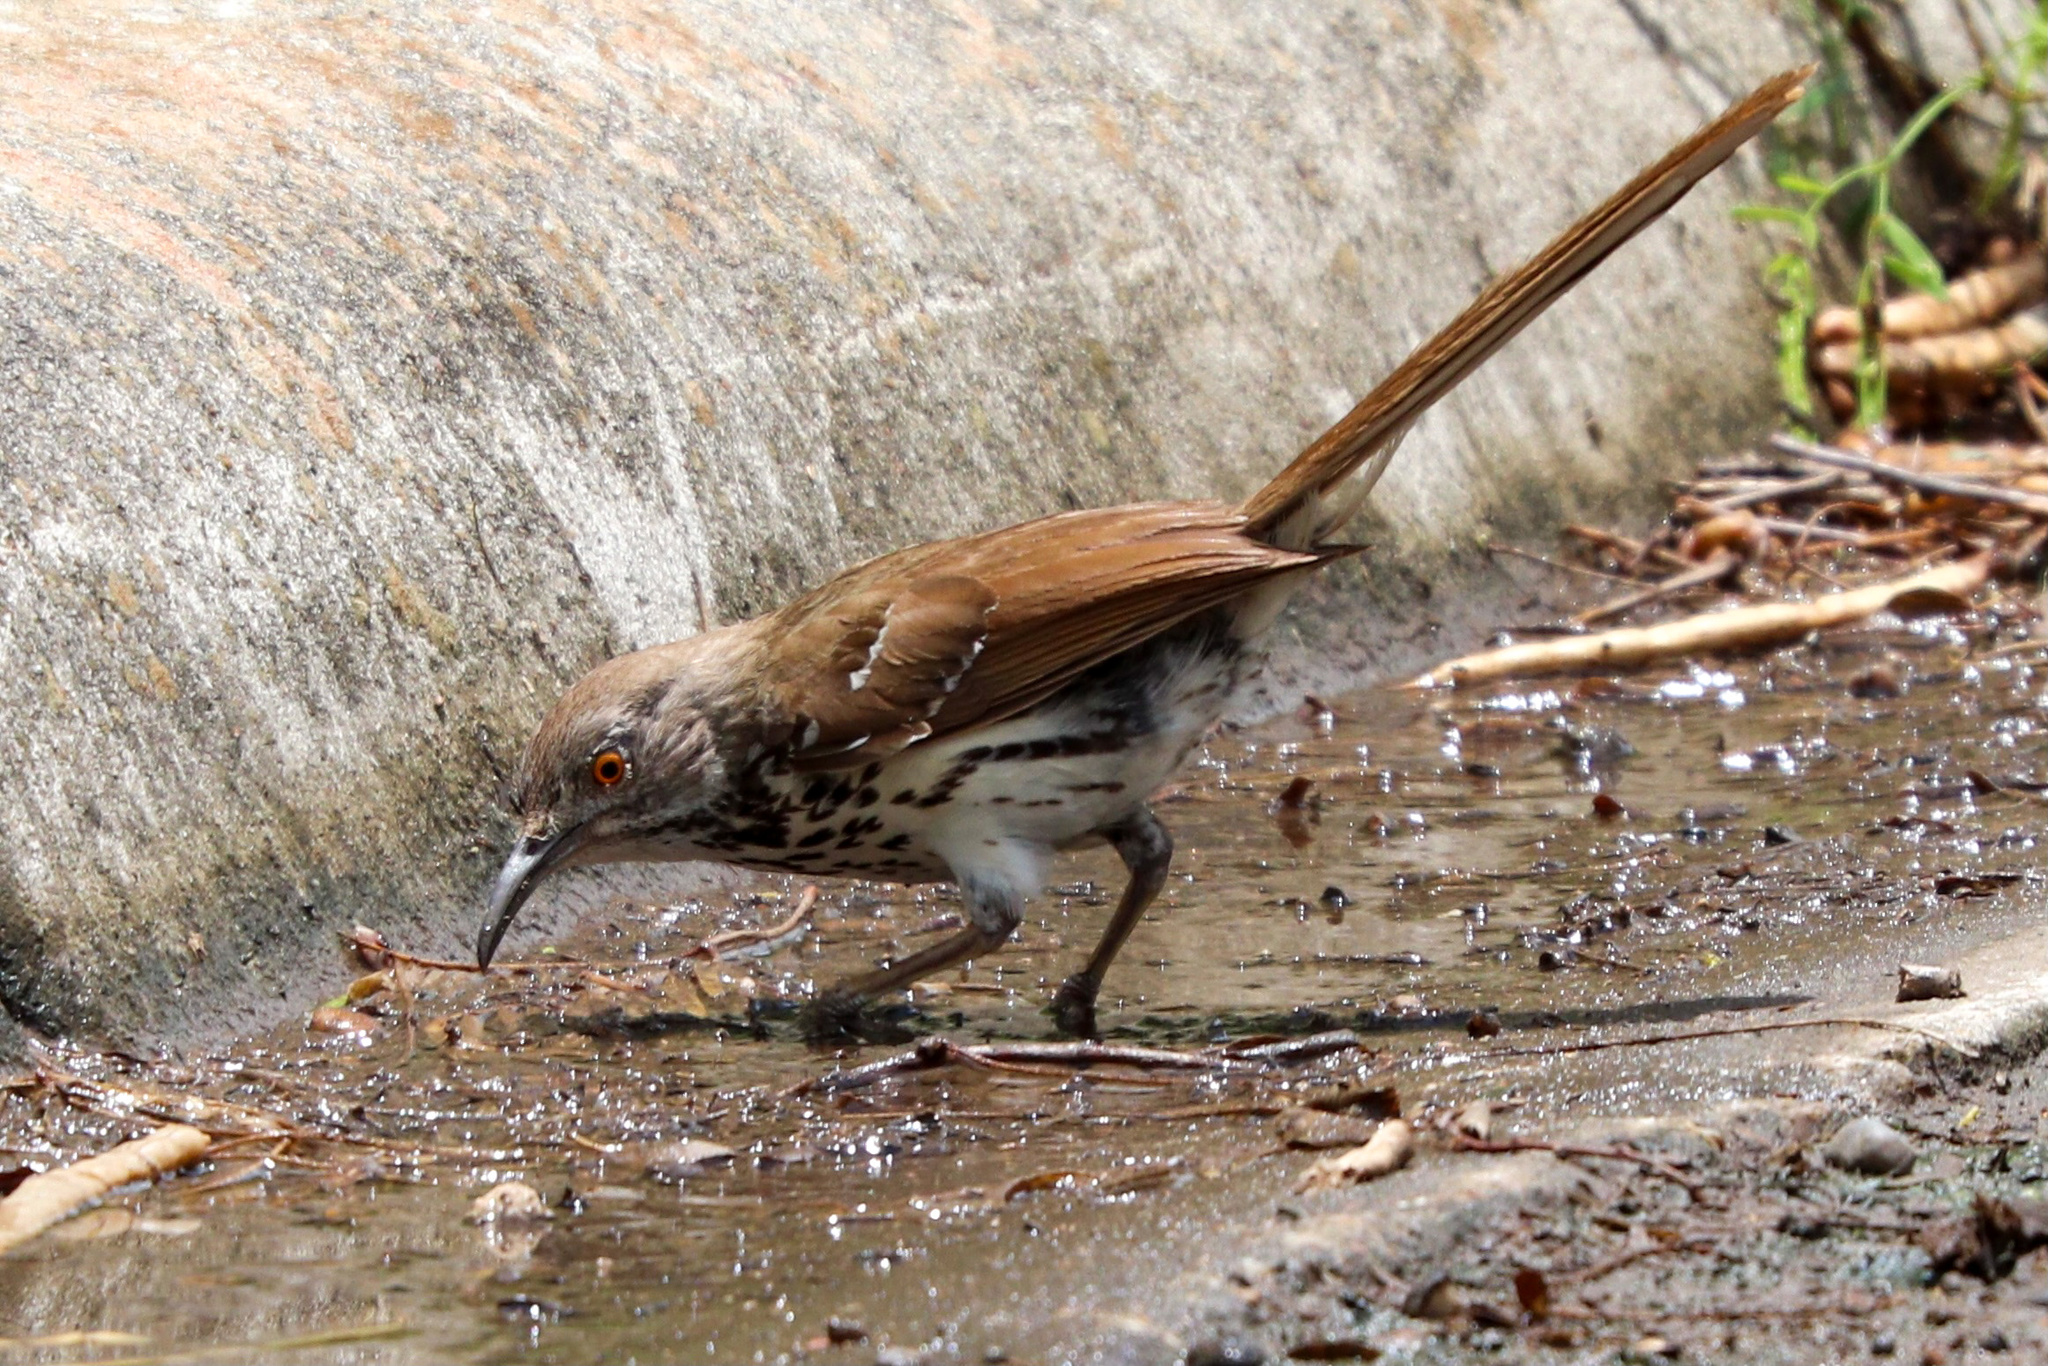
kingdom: Animalia
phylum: Chordata
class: Aves
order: Passeriformes
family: Mimidae
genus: Toxostoma
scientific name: Toxostoma longirostre
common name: Long-billed thrasher
